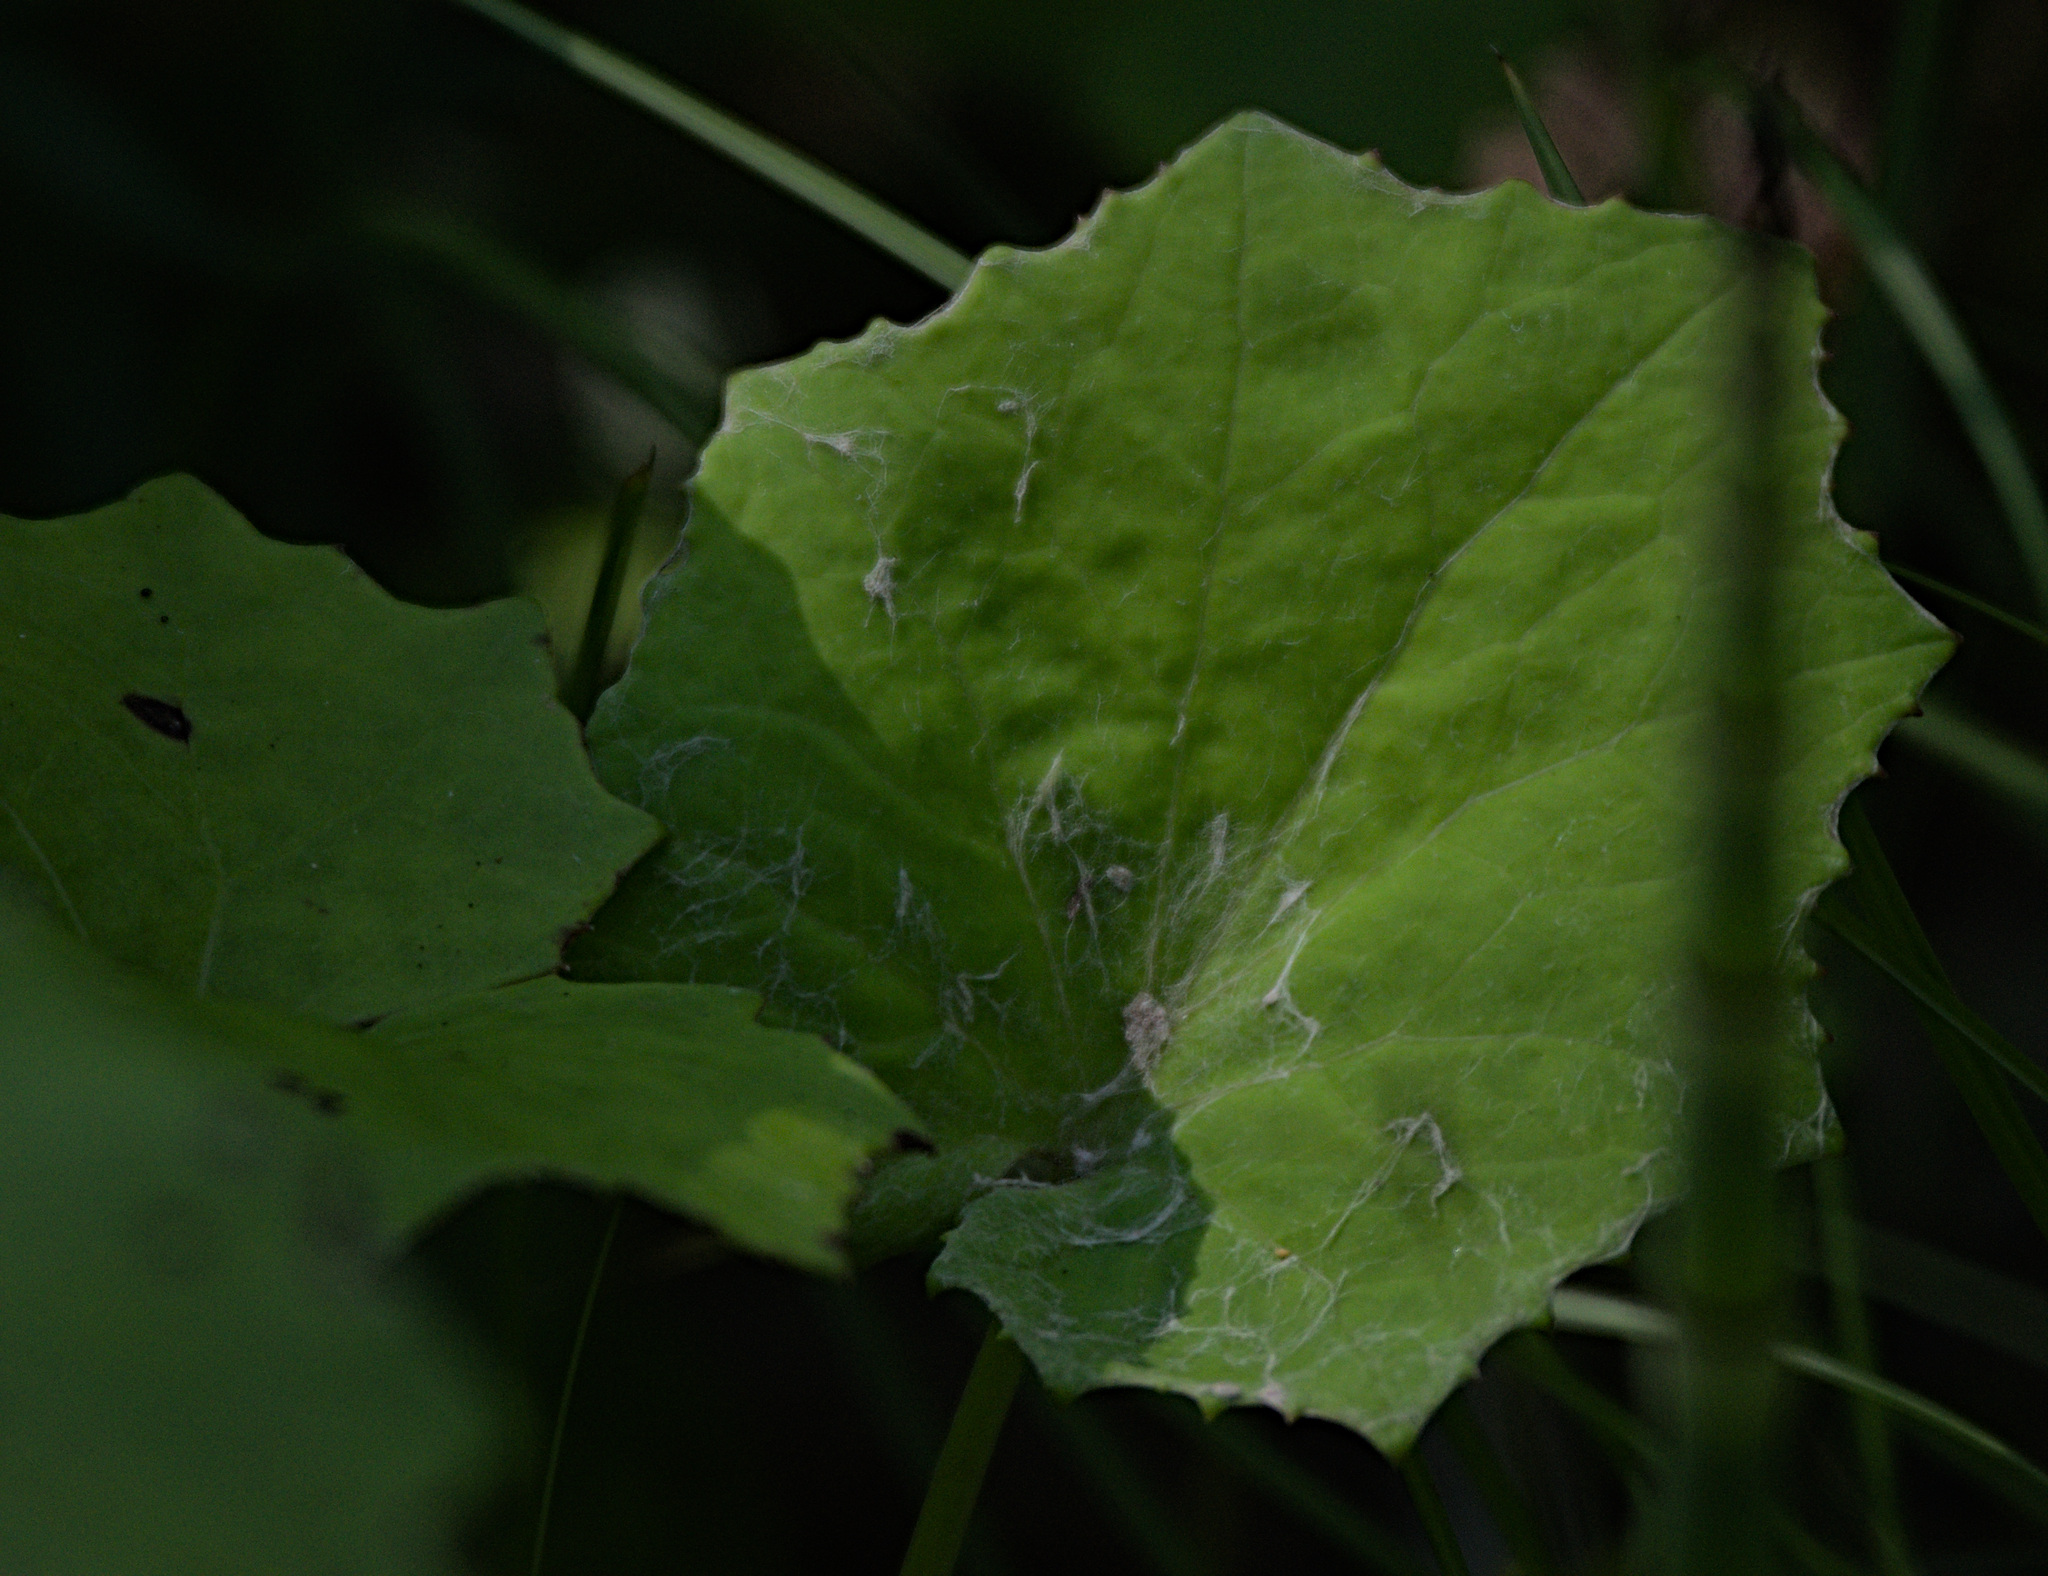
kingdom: Plantae
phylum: Tracheophyta
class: Magnoliopsida
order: Asterales
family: Asteraceae
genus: Tussilago
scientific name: Tussilago farfara
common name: Coltsfoot
